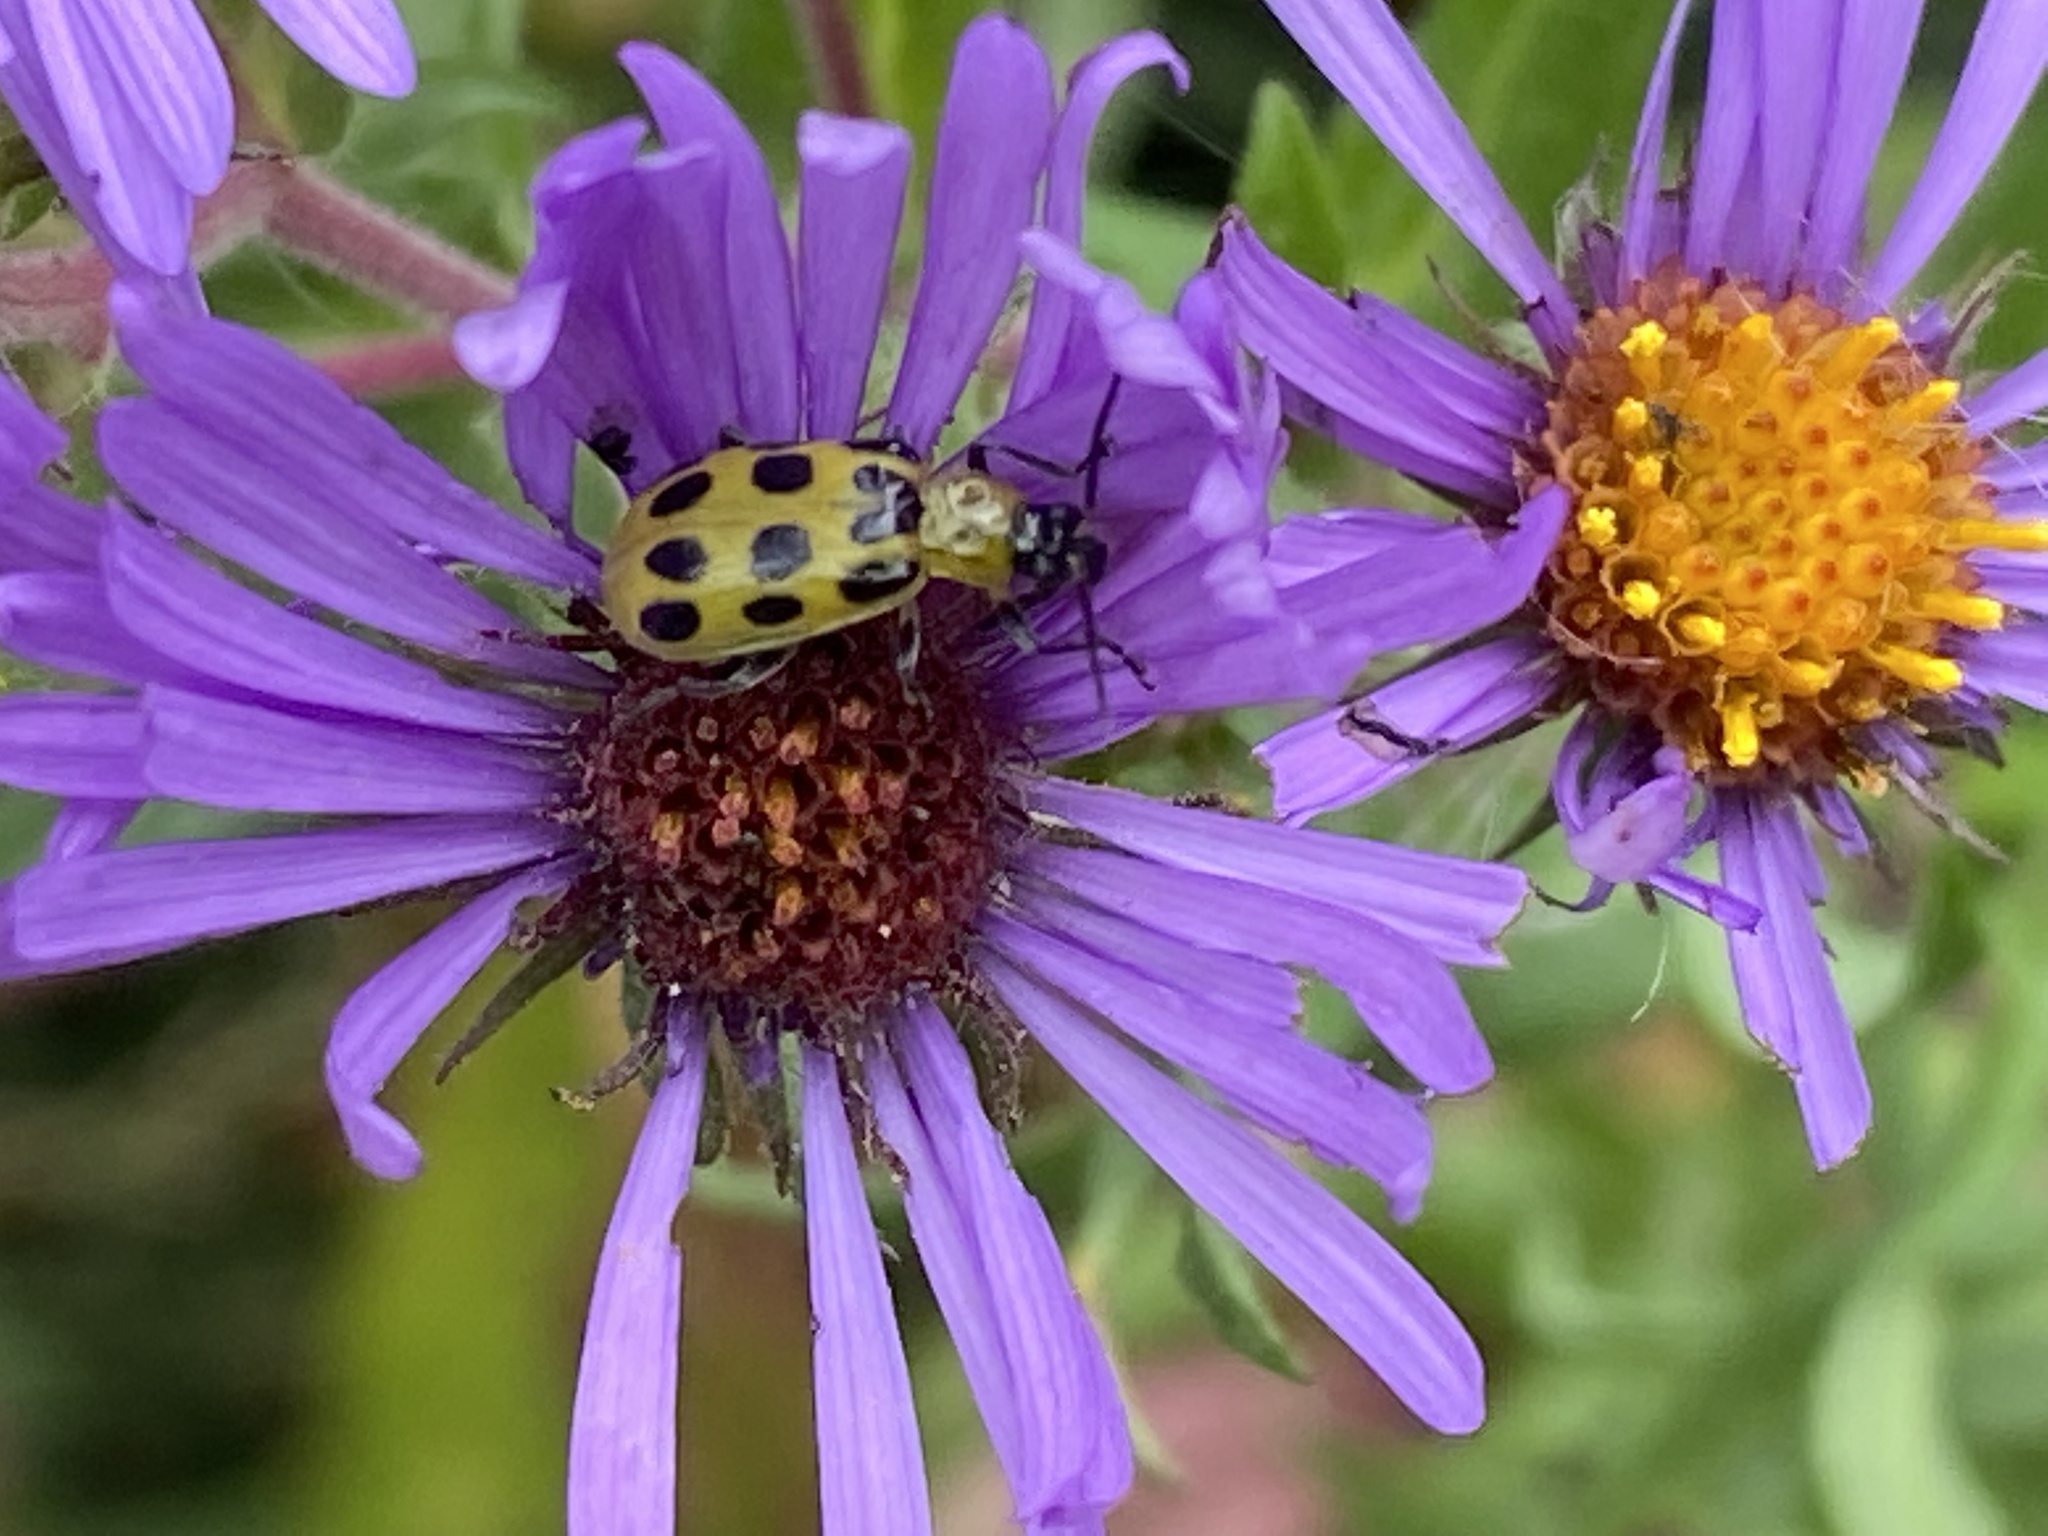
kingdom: Animalia
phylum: Arthropoda
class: Insecta
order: Coleoptera
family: Chrysomelidae
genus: Diabrotica
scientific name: Diabrotica undecimpunctata
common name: Spotted cucumber beetle
